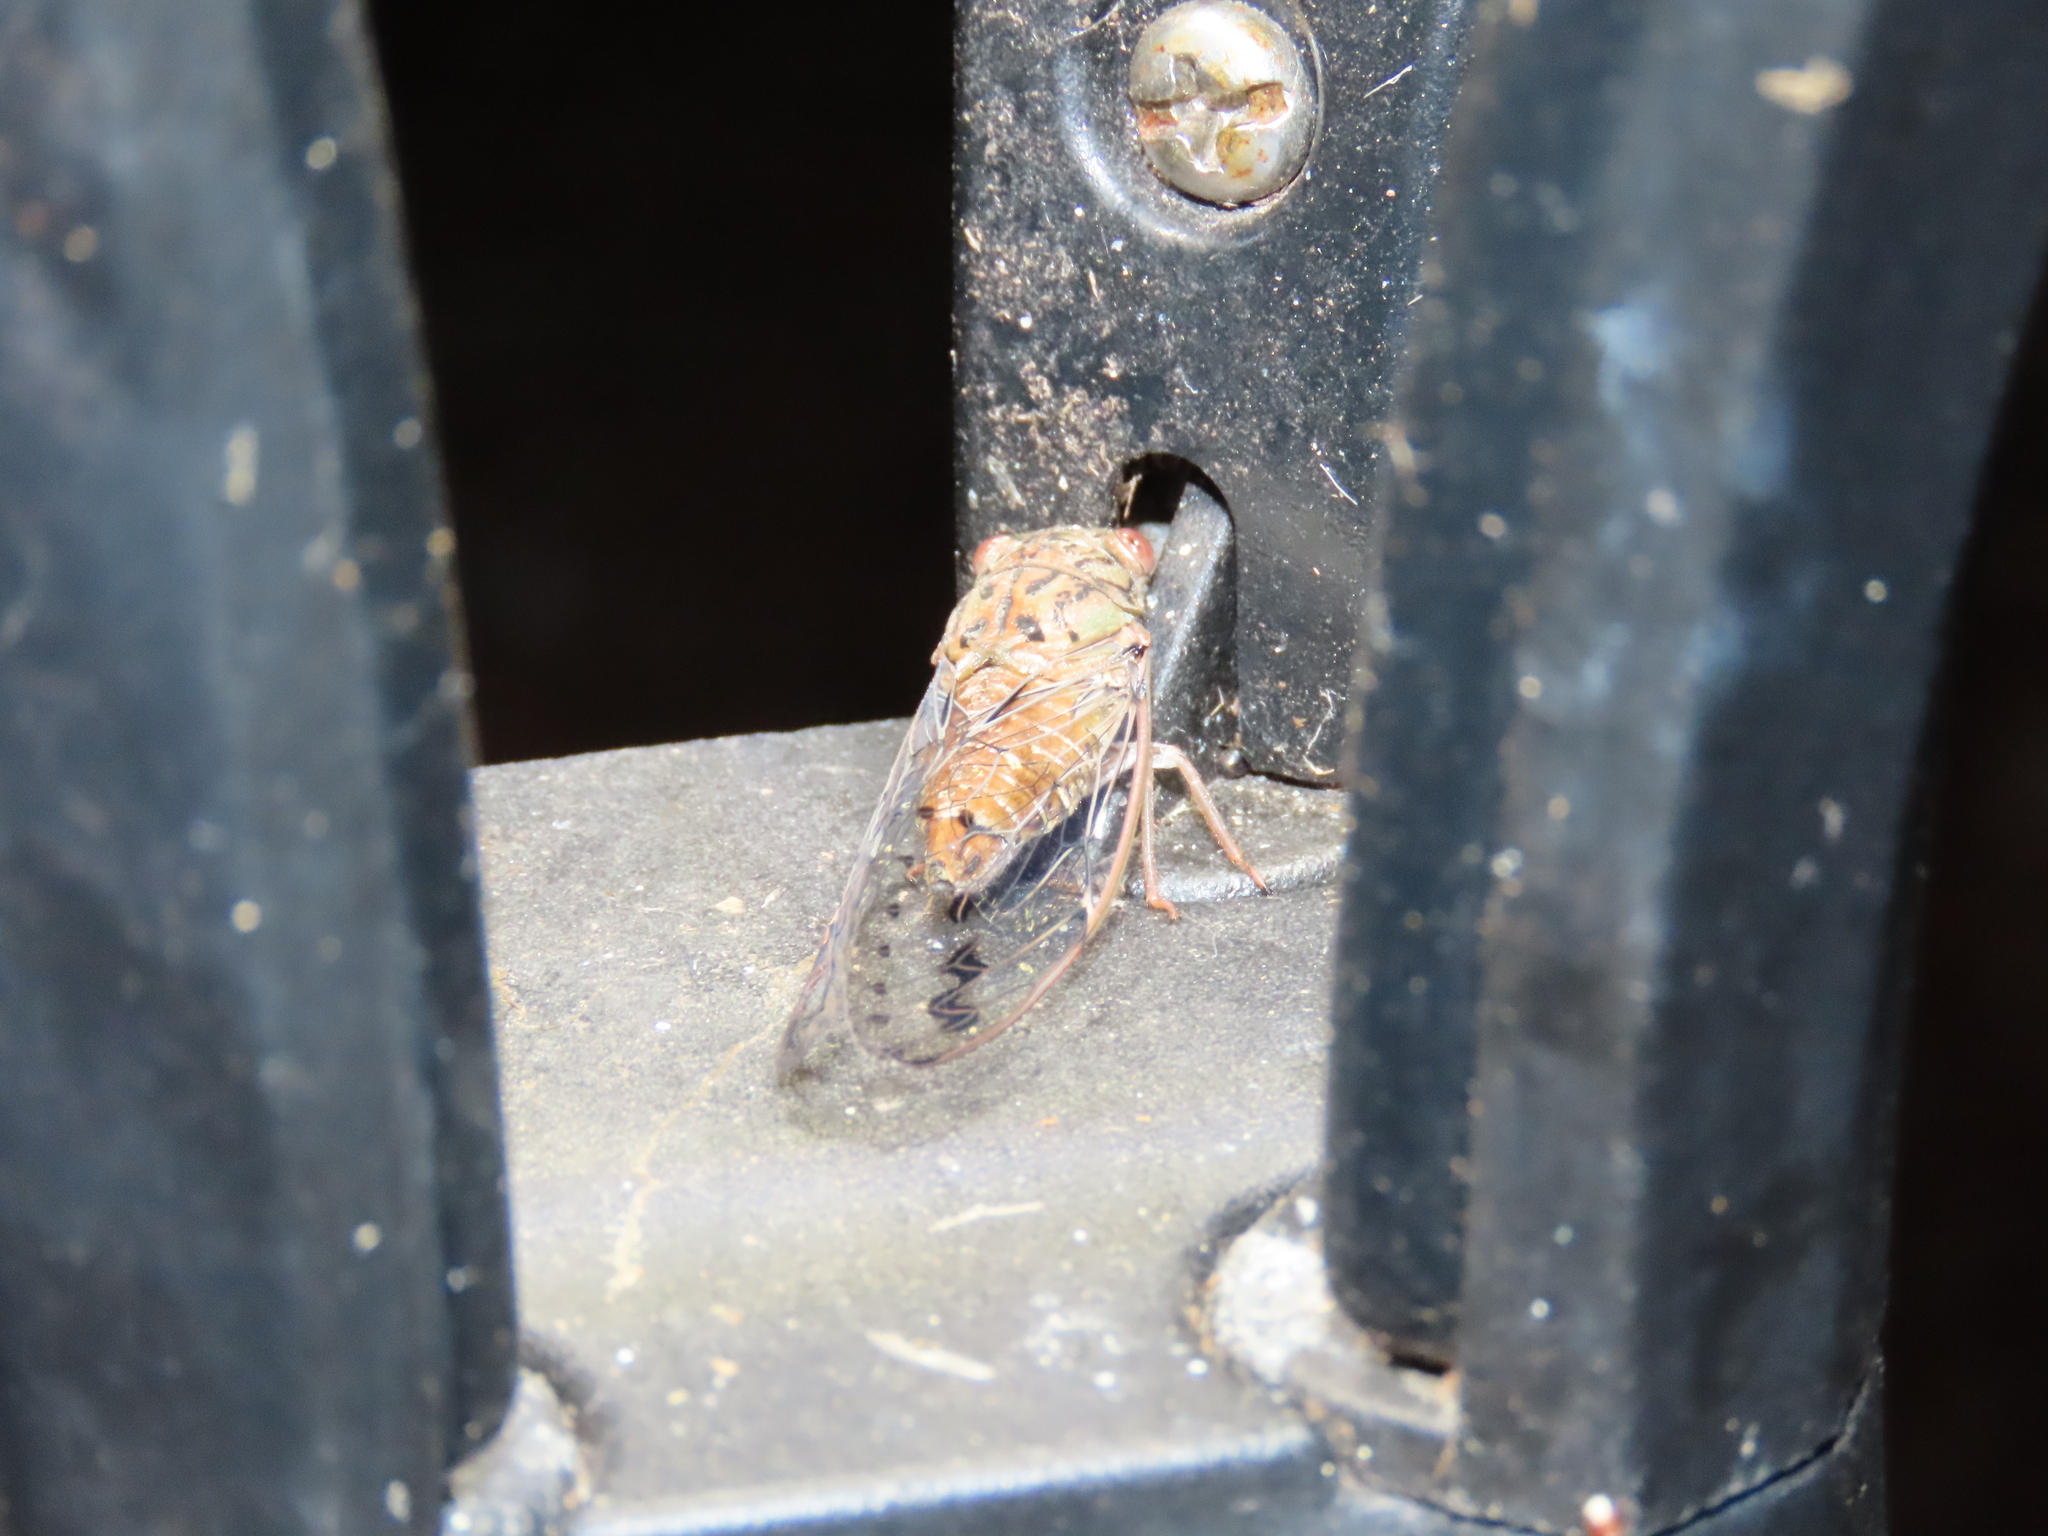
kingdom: Animalia
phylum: Arthropoda
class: Insecta
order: Hemiptera
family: Cicadidae
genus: Neocicada
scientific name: Neocicada hieroglyphica
